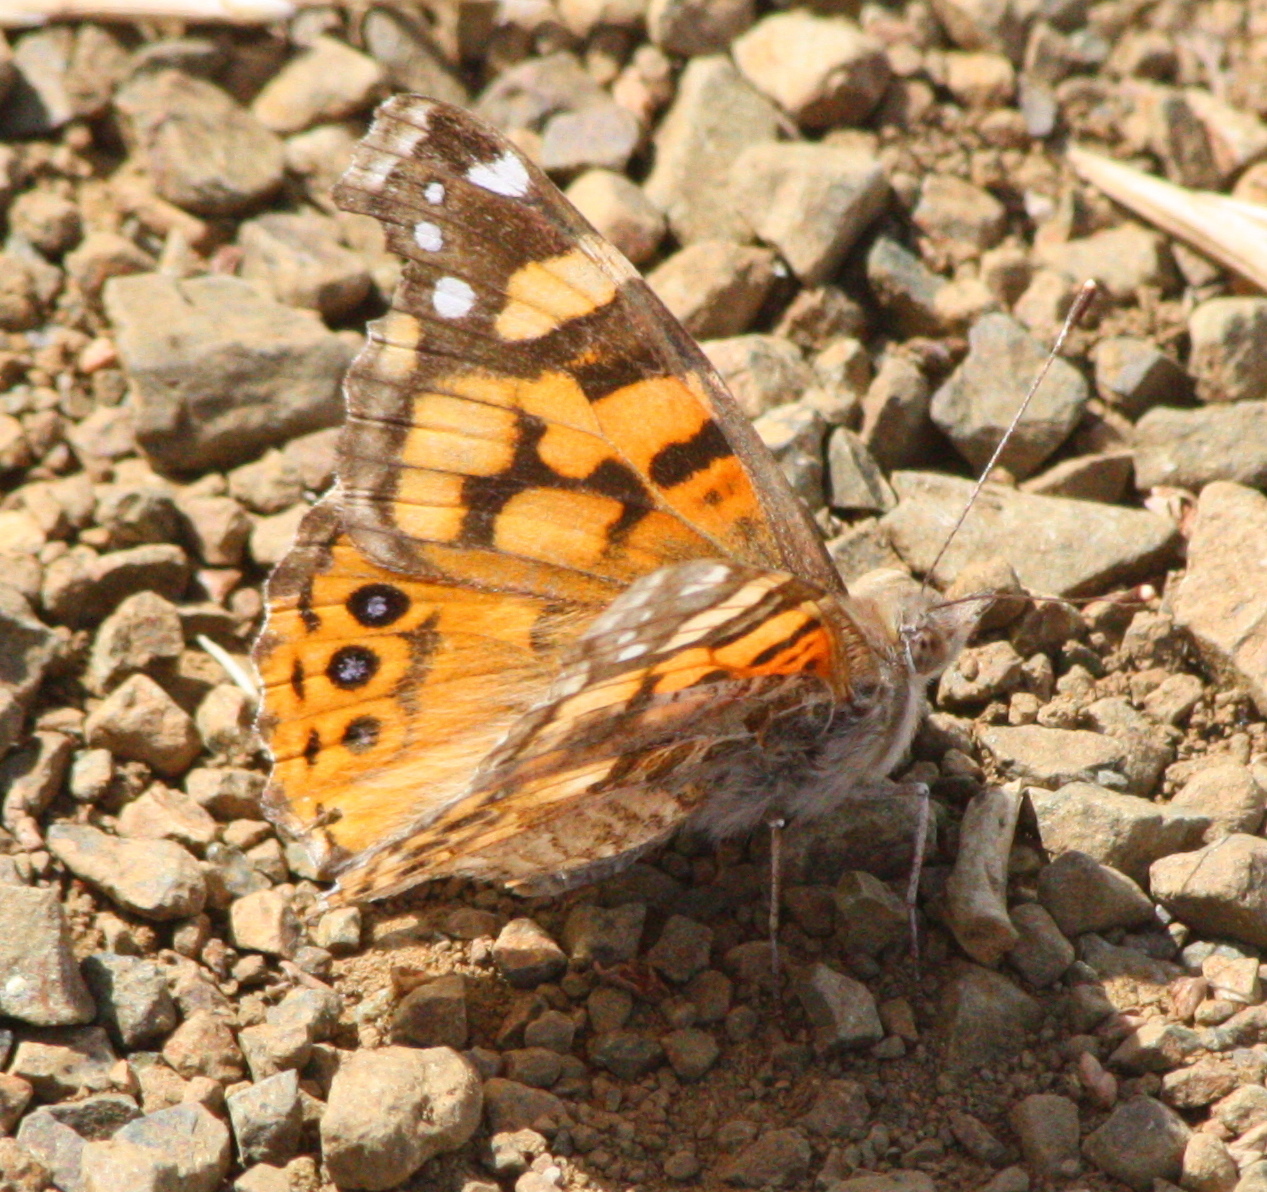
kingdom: Animalia
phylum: Arthropoda
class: Insecta
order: Lepidoptera
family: Nymphalidae
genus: Vanessa
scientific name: Vanessa annabella
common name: West coast lady
